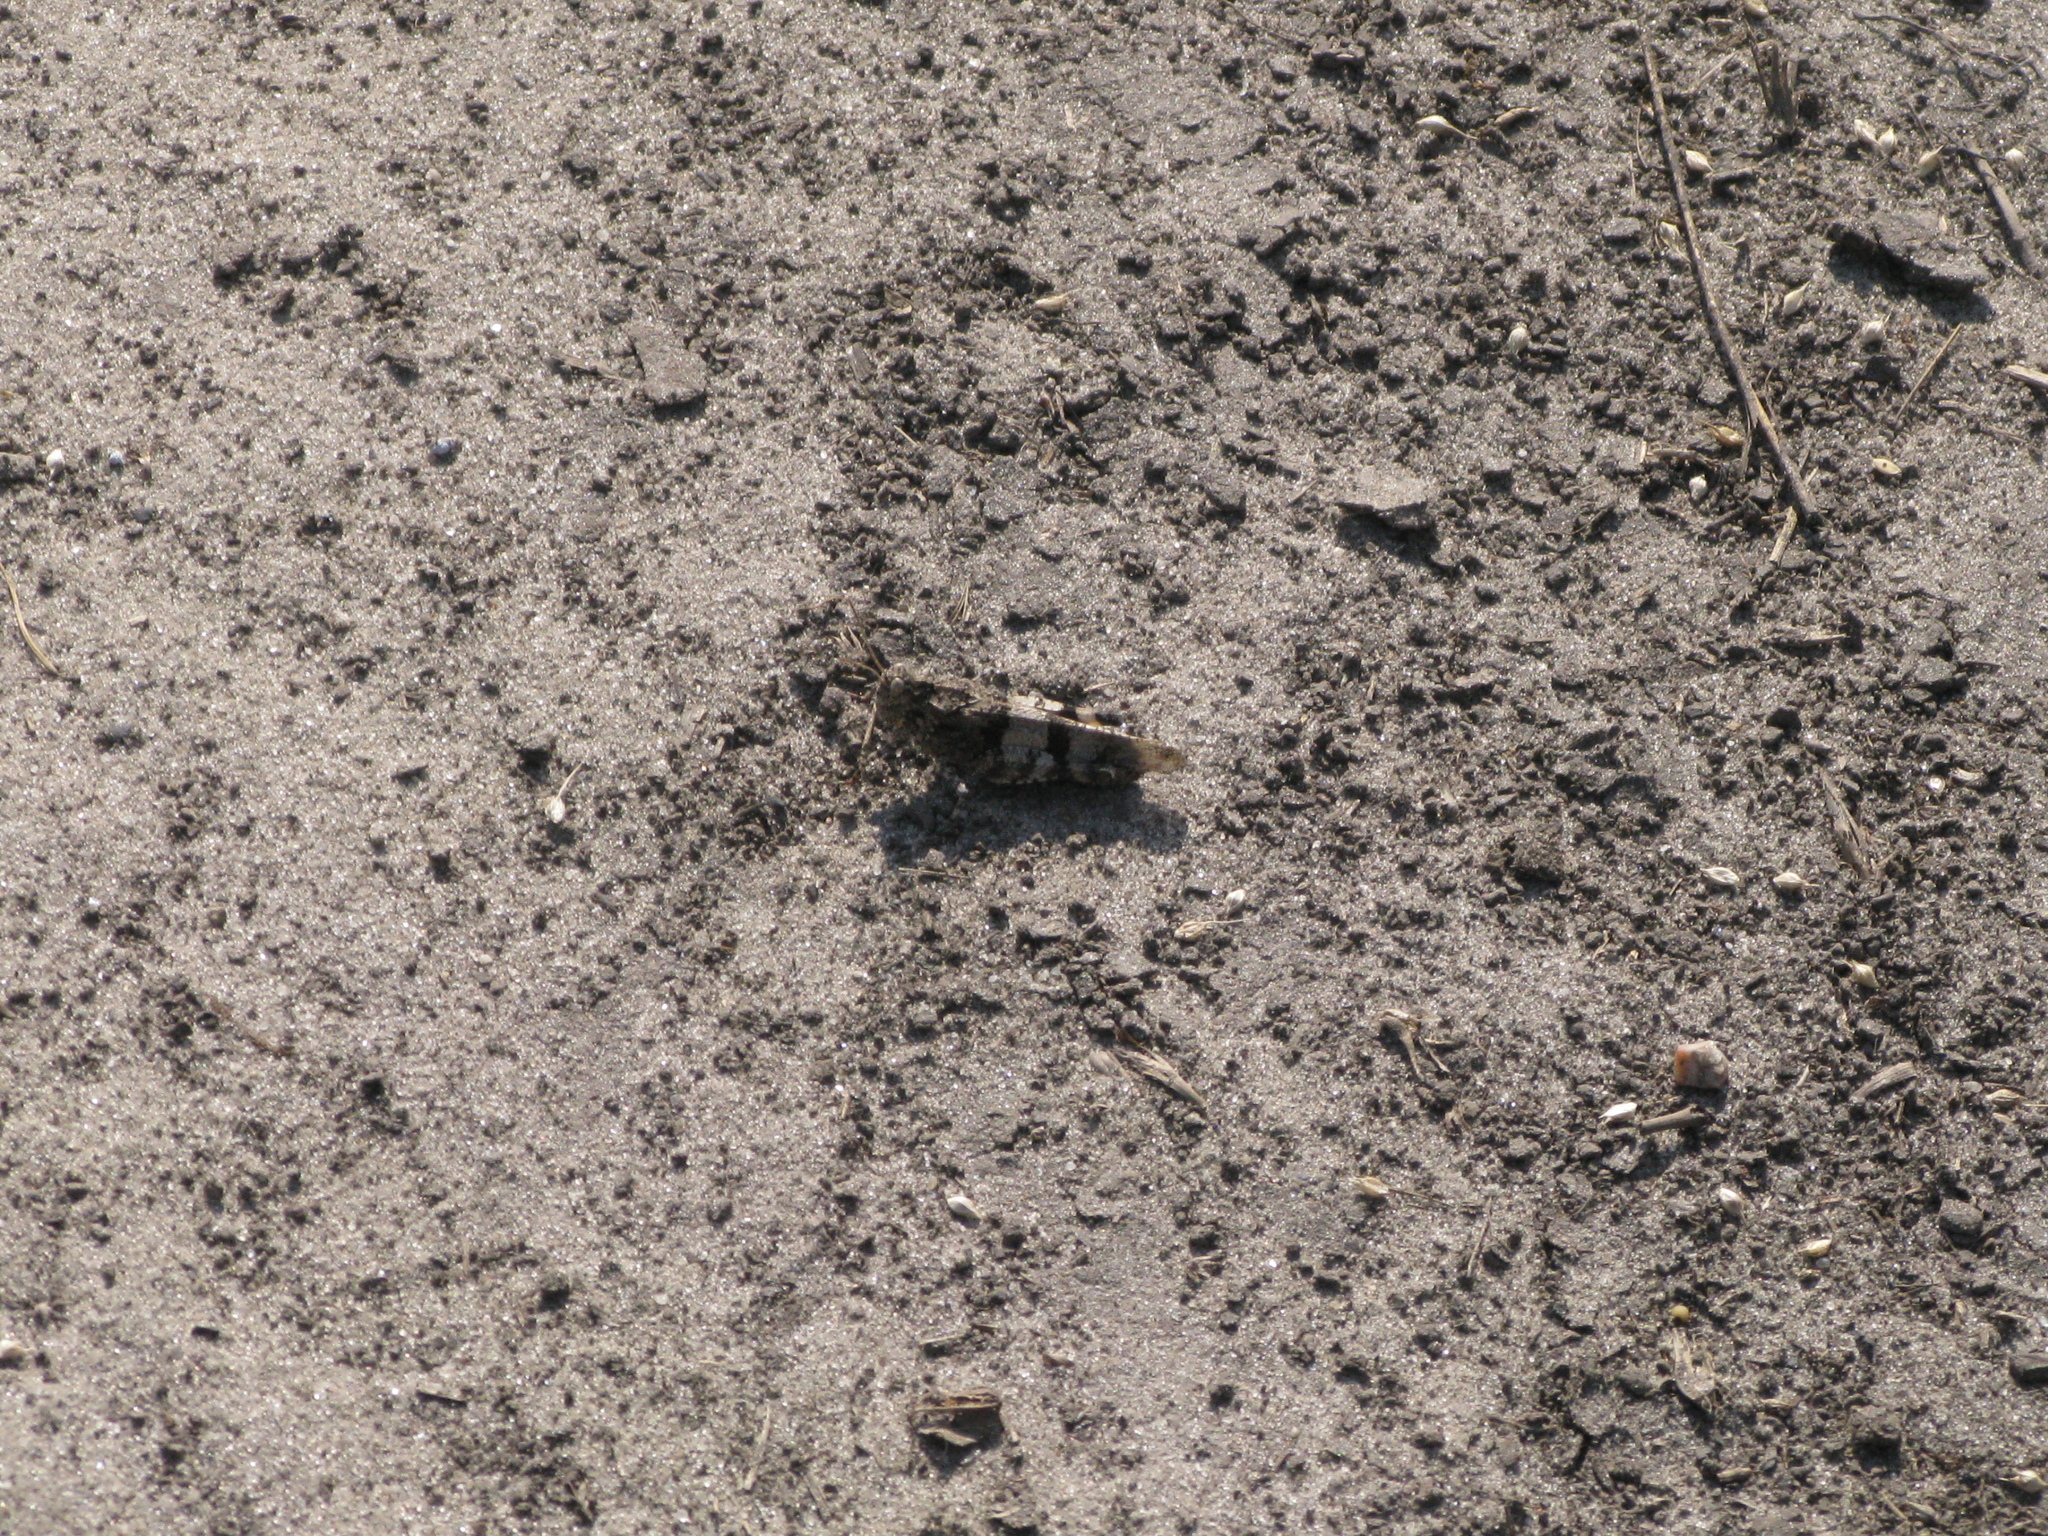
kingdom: Animalia
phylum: Arthropoda
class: Insecta
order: Orthoptera
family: Acrididae
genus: Oedipoda
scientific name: Oedipoda caerulescens
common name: Blue-winged grasshopper
